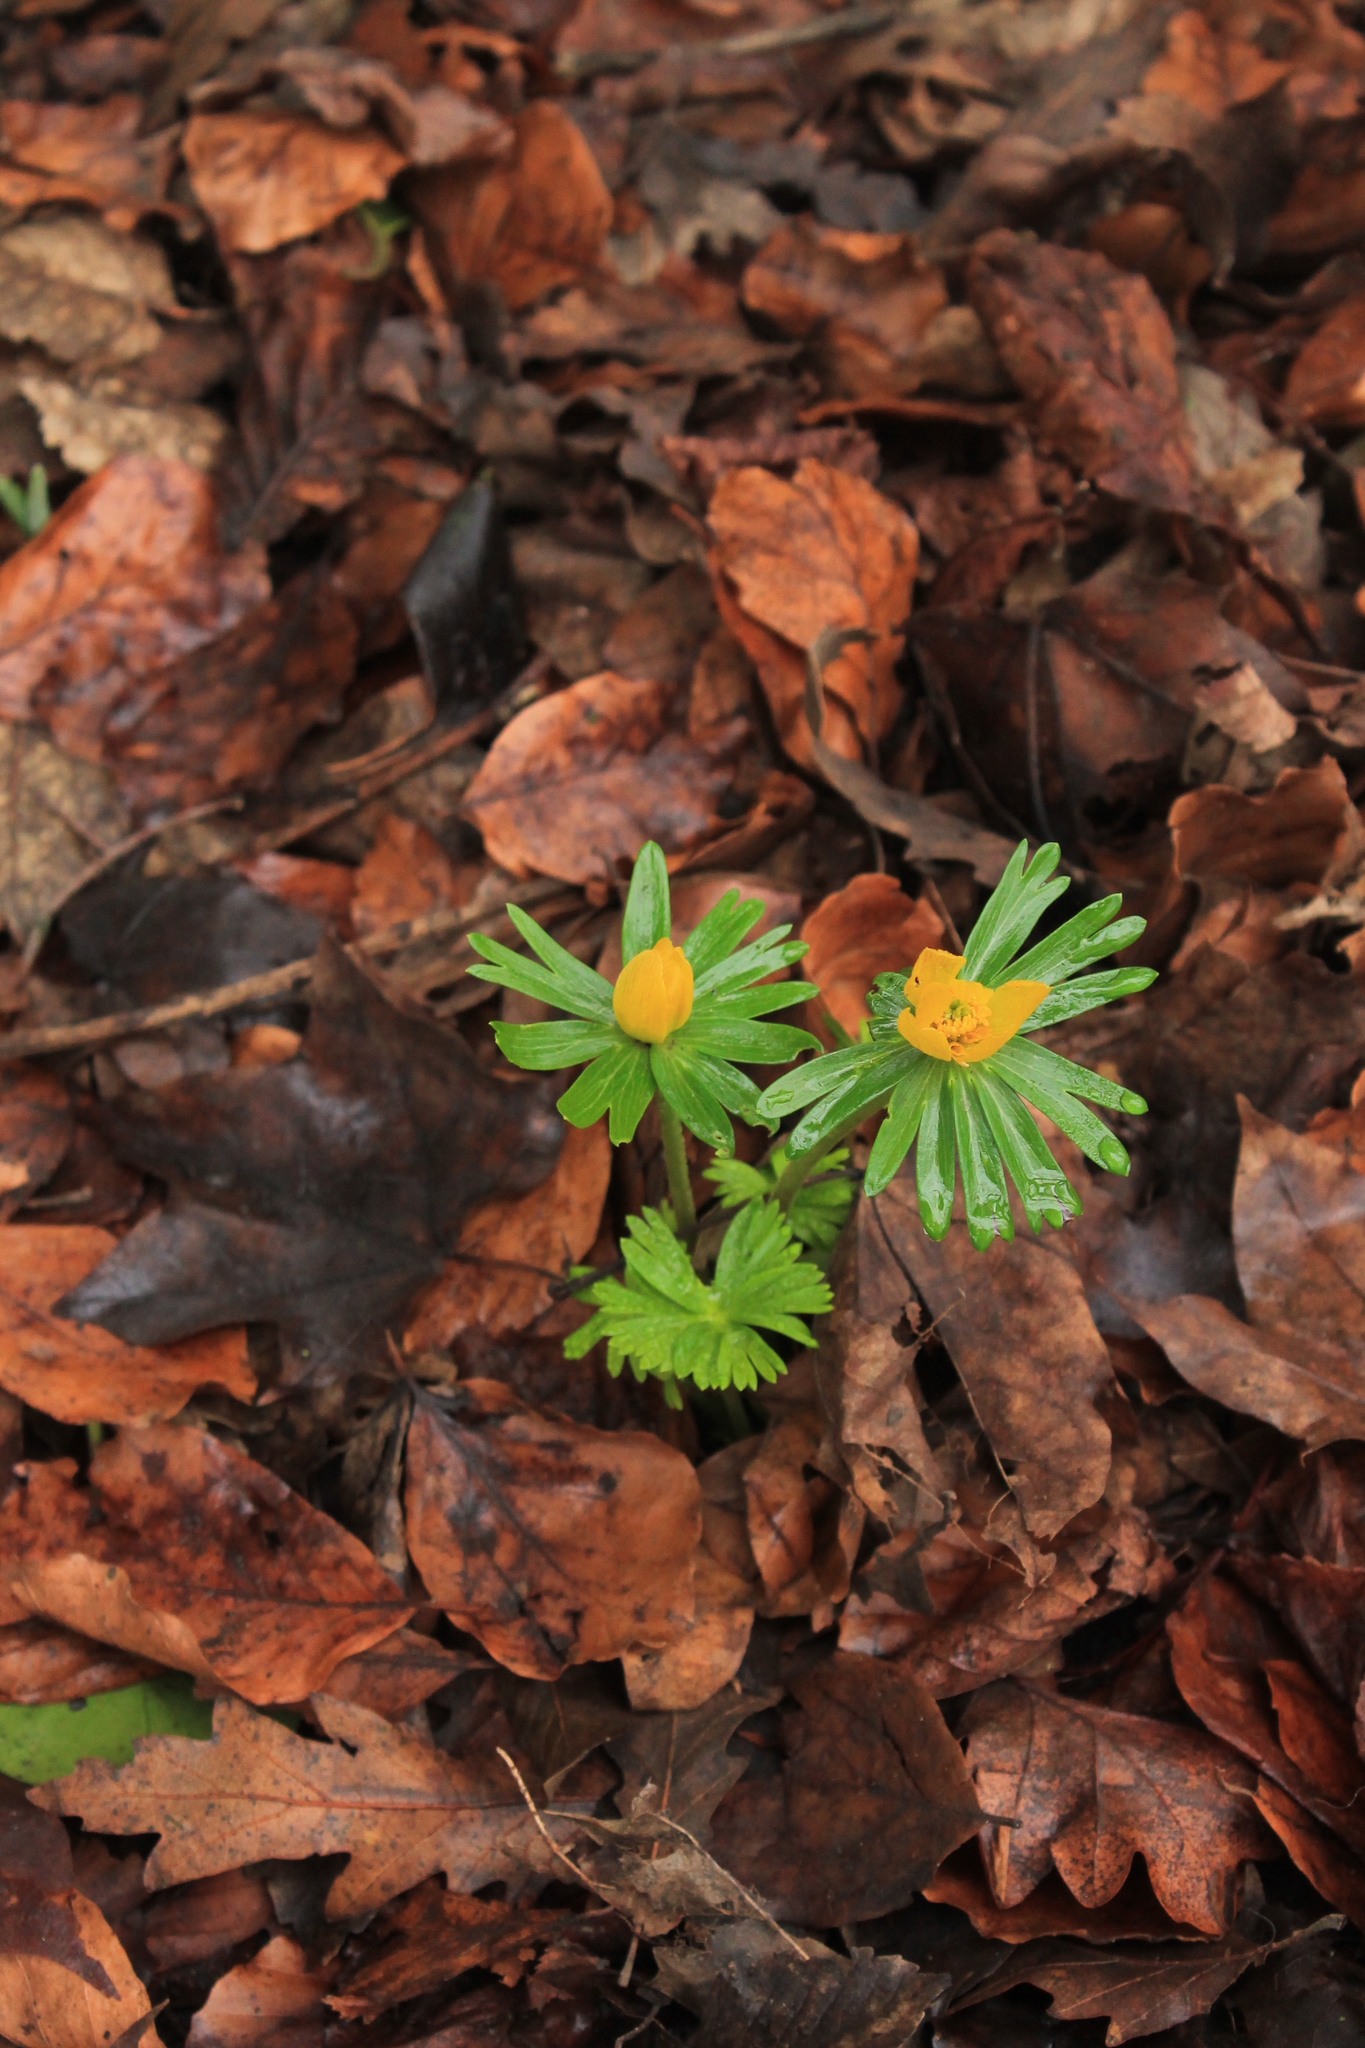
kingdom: Plantae
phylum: Tracheophyta
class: Magnoliopsida
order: Ranunculales
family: Ranunculaceae
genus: Eranthis
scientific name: Eranthis hyemalis
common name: Winter aconite
